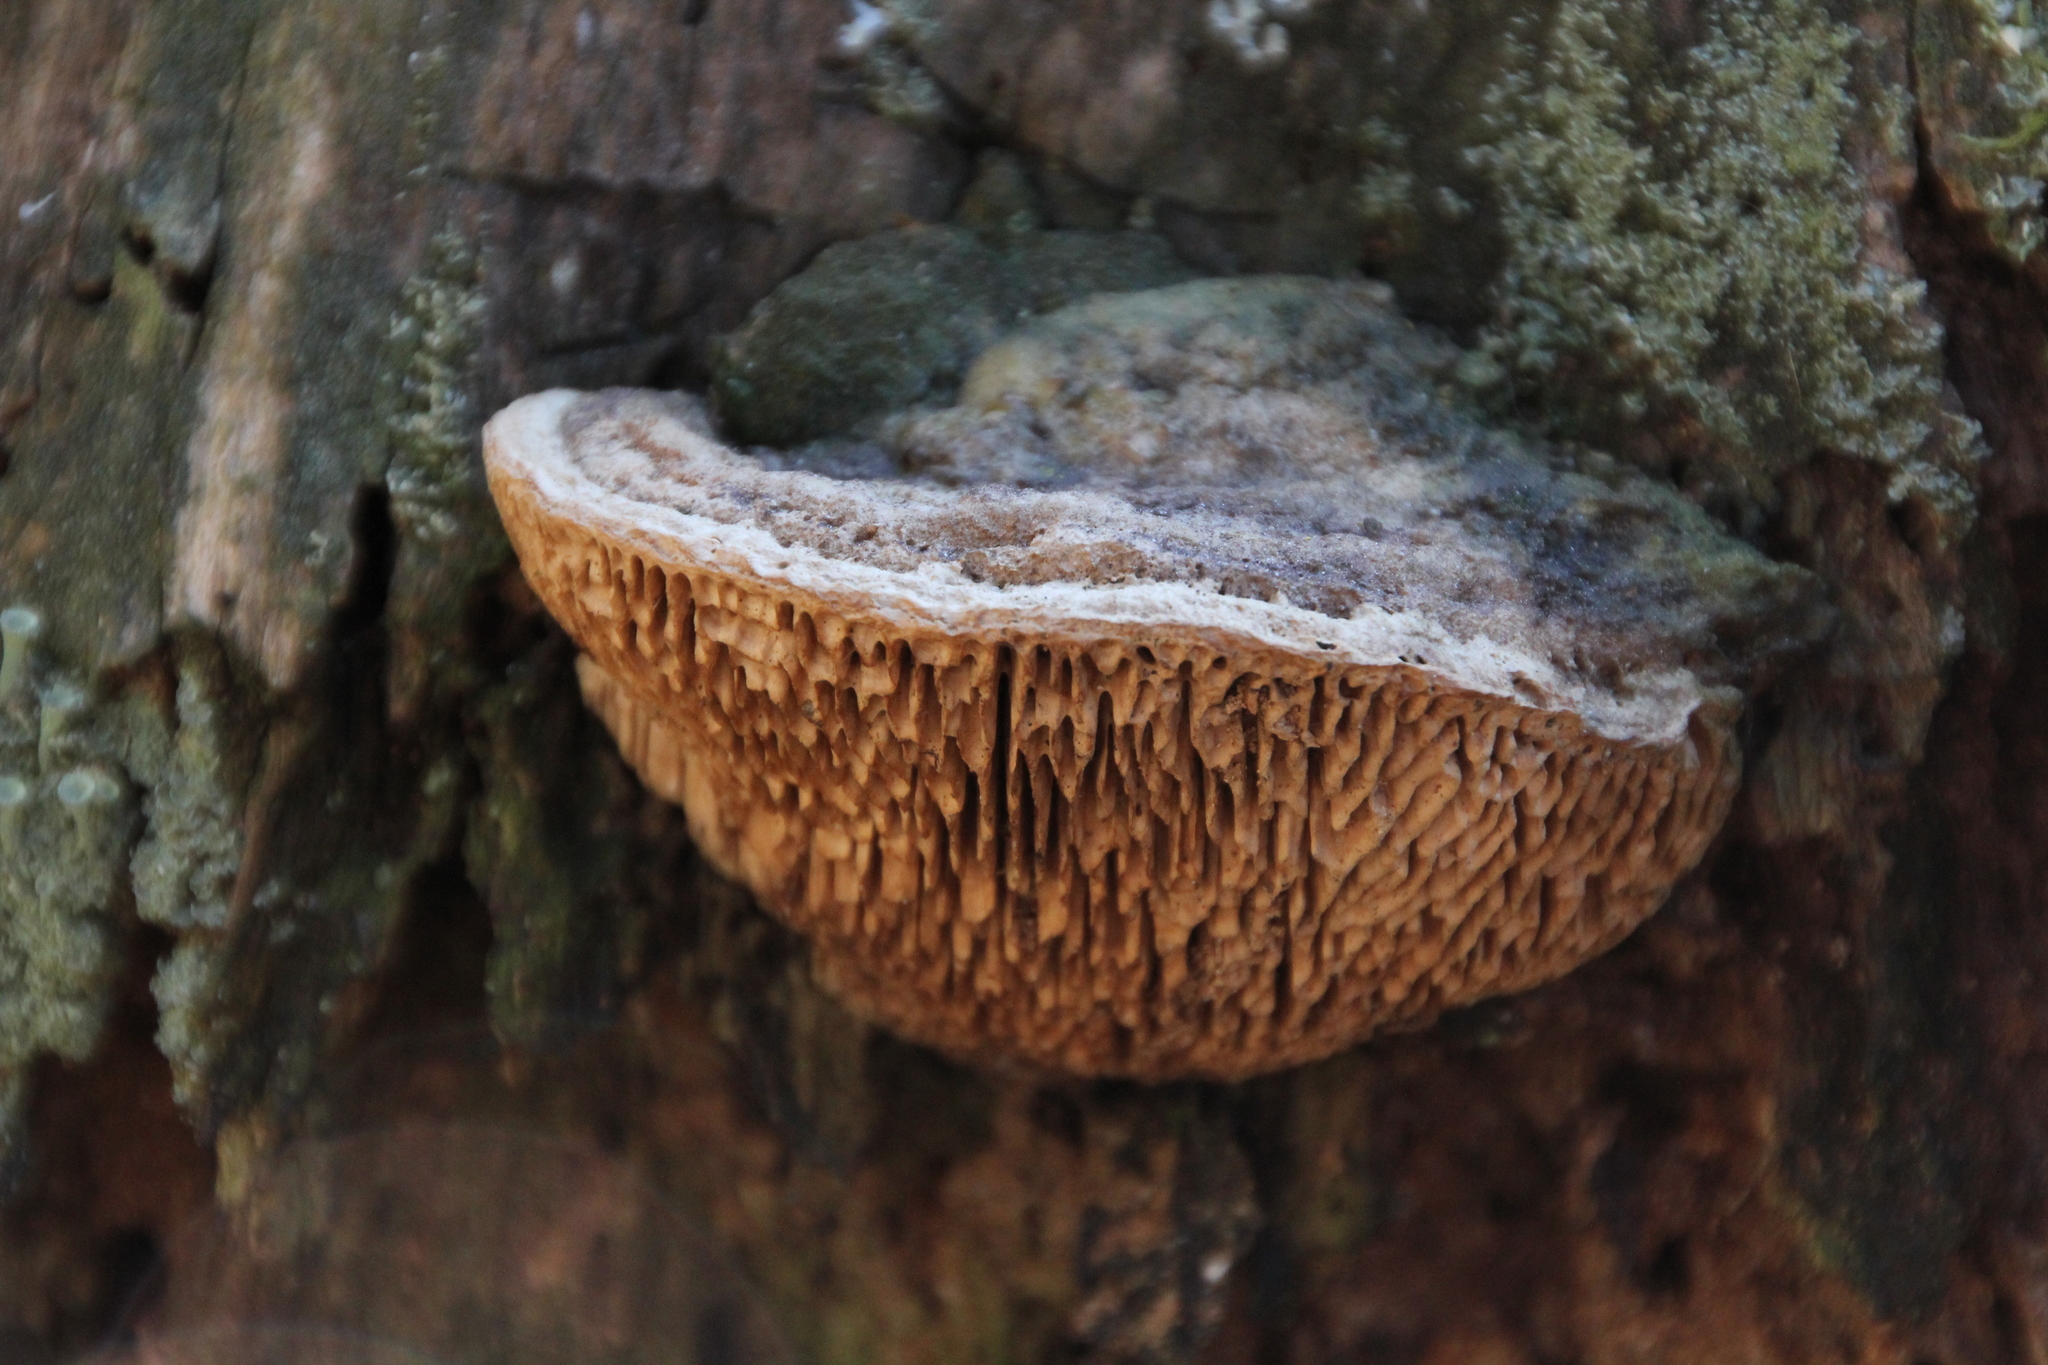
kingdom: Fungi
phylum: Basidiomycota
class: Agaricomycetes
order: Polyporales
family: Fomitopsidaceae
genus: Fomitopsis
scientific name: Fomitopsis
